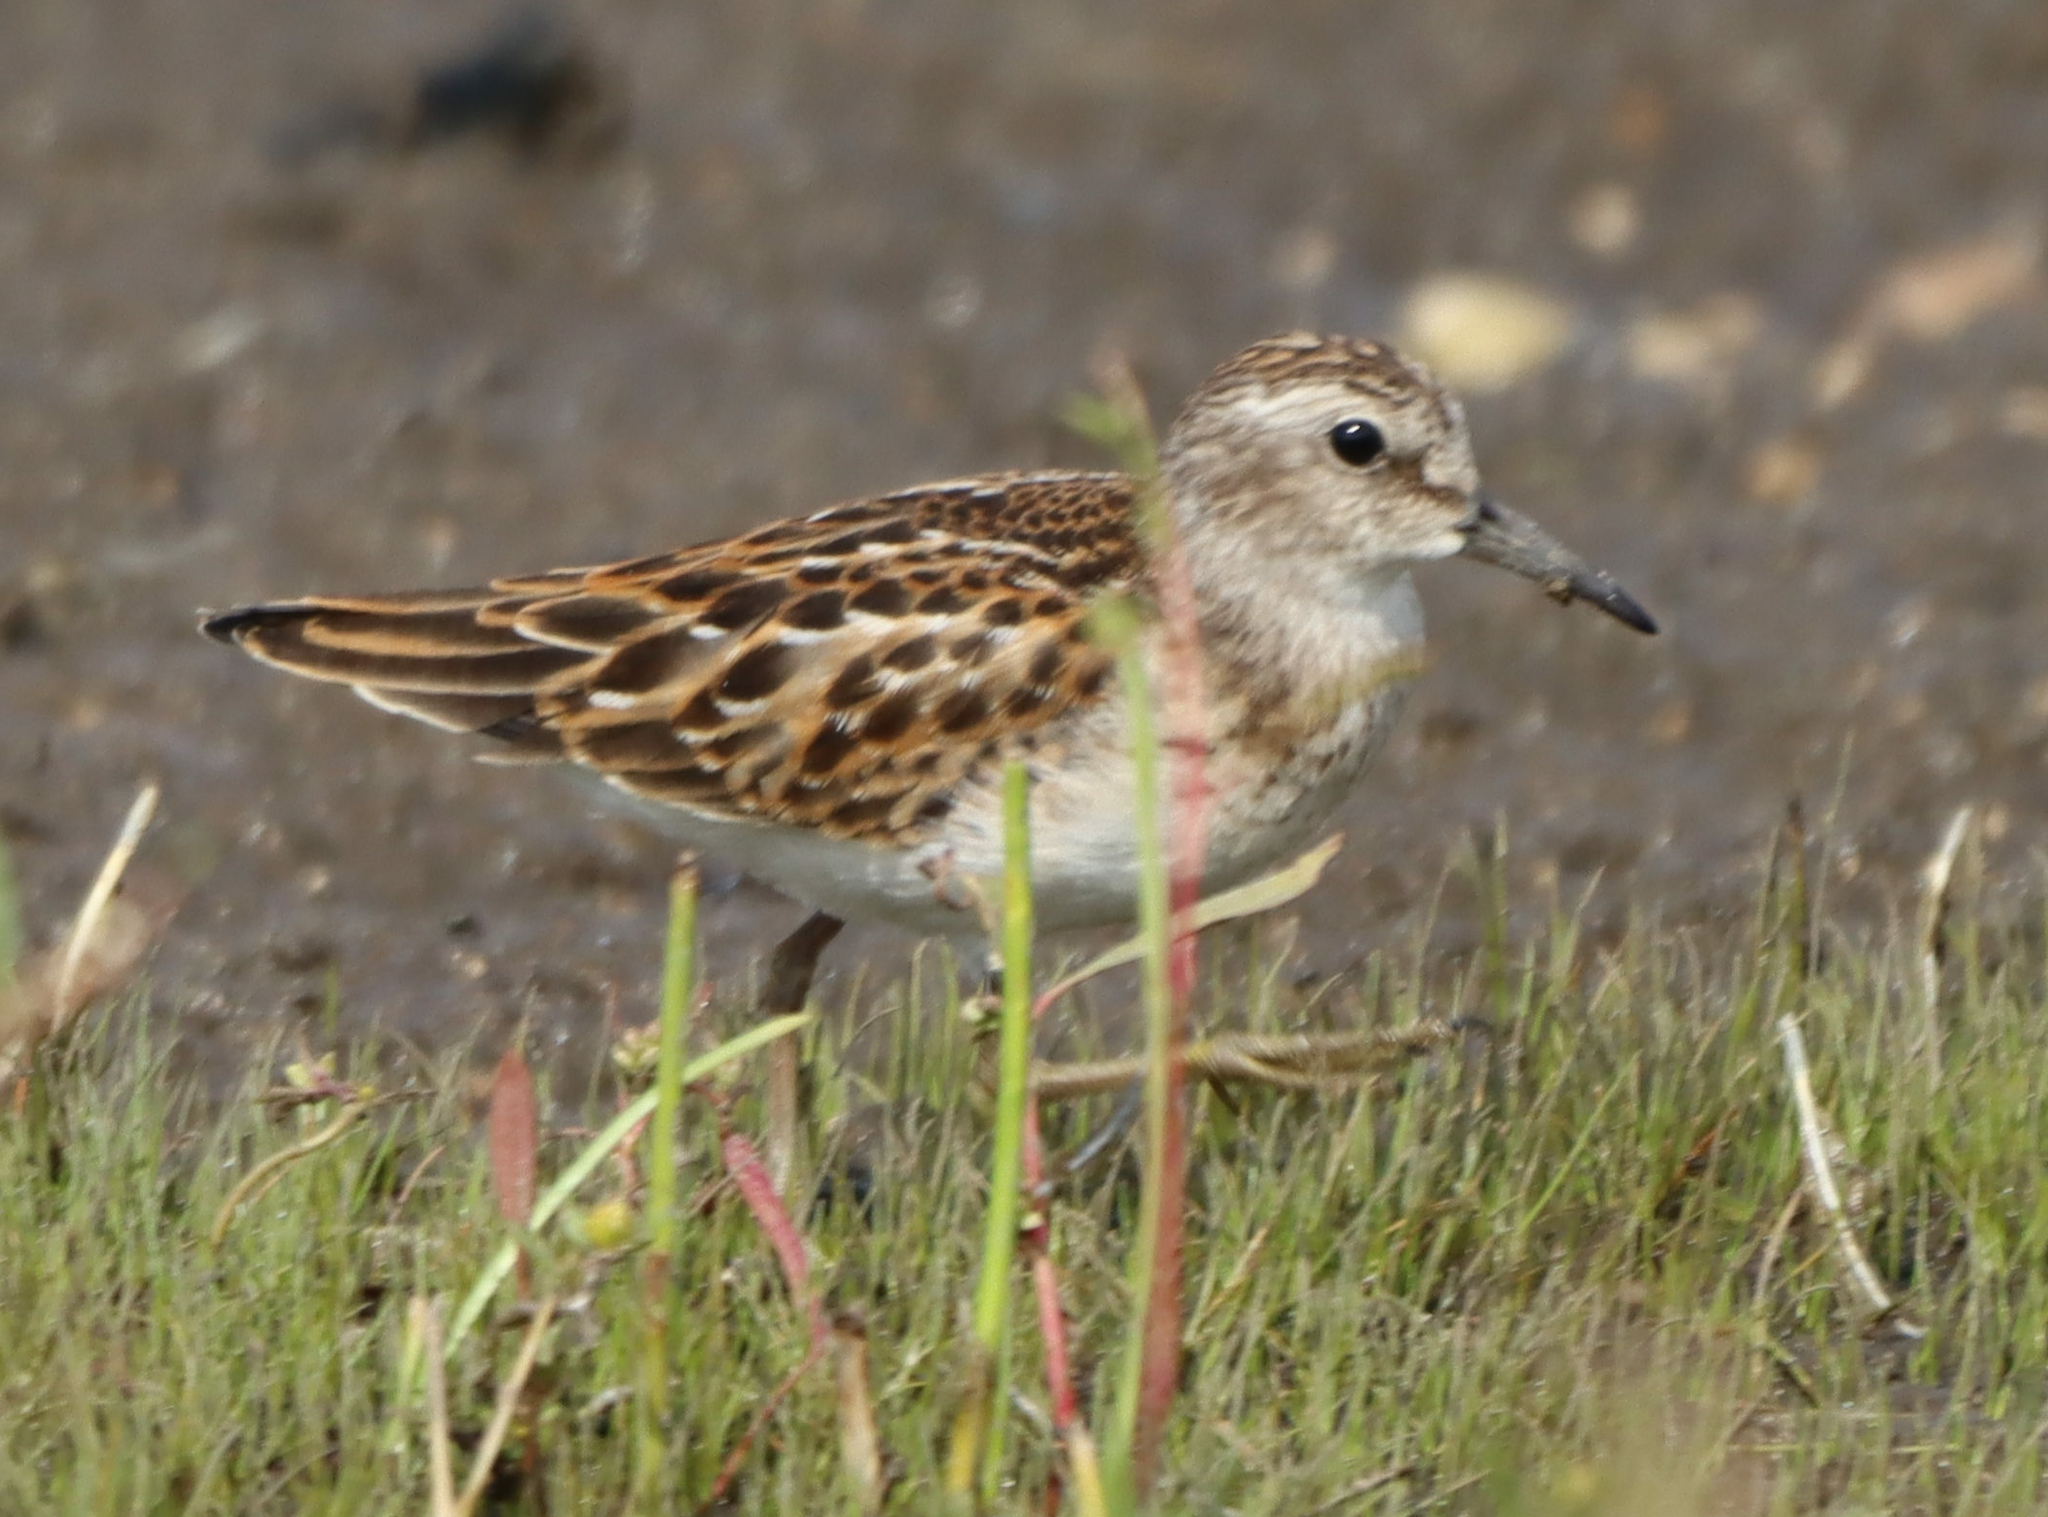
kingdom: Animalia
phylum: Chordata
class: Aves
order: Charadriiformes
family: Scolopacidae
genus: Calidris
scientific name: Calidris minutilla
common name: Least sandpiper
